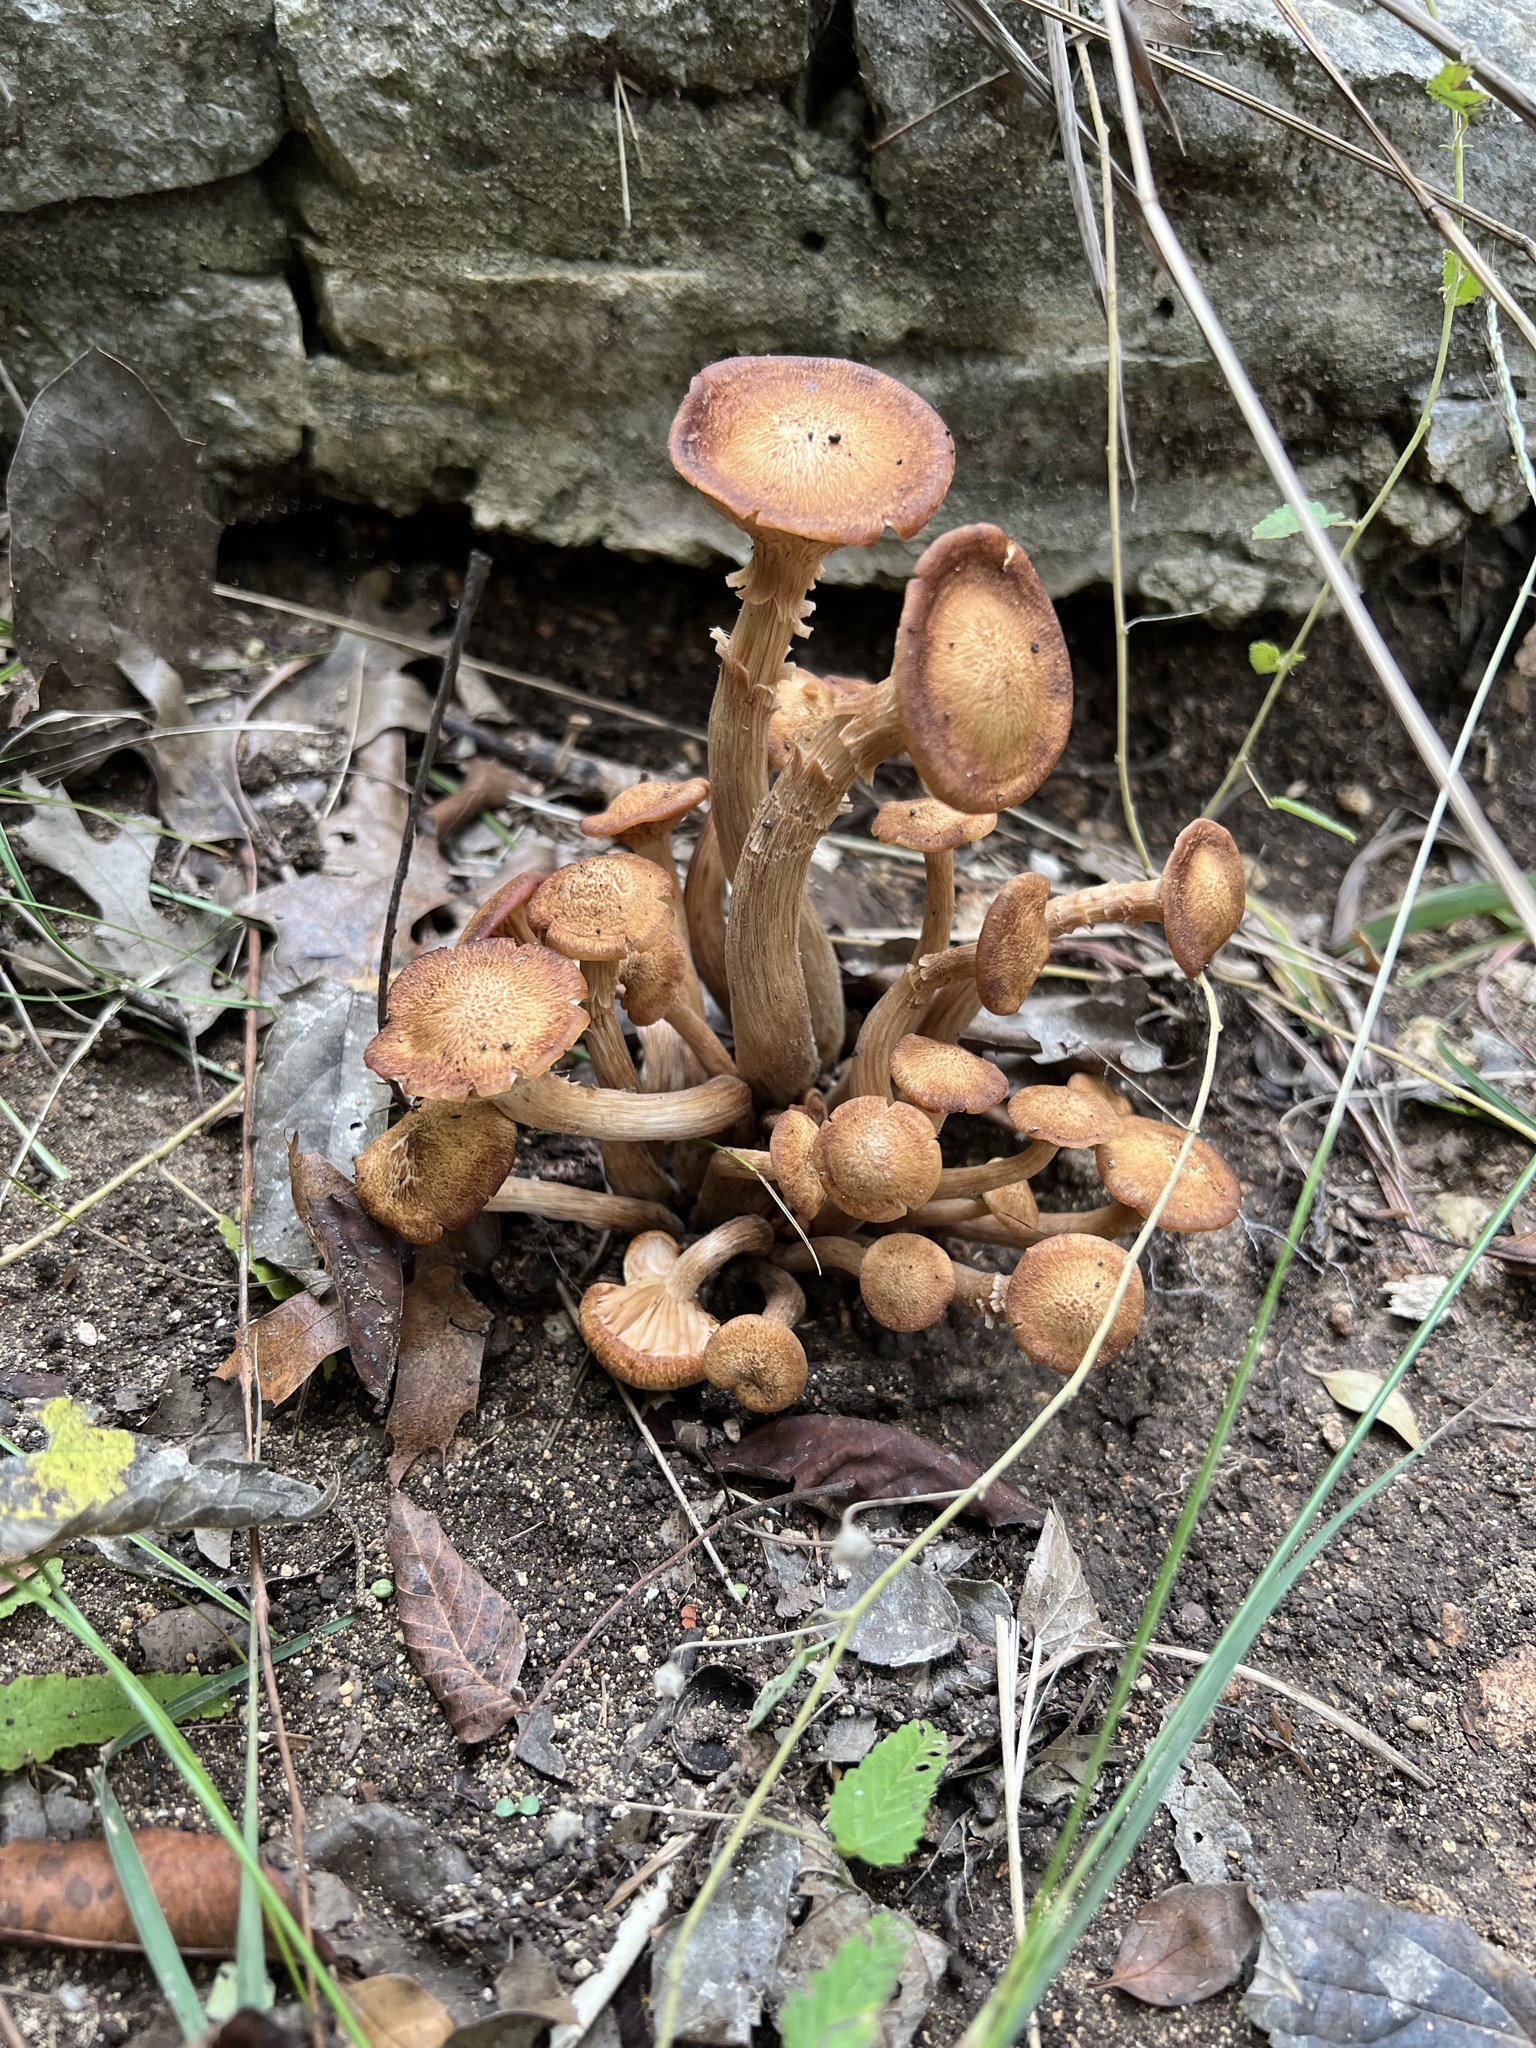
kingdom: Fungi
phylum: Basidiomycota
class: Agaricomycetes
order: Agaricales
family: Physalacriaceae
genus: Desarmillaria
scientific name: Desarmillaria caespitosa
